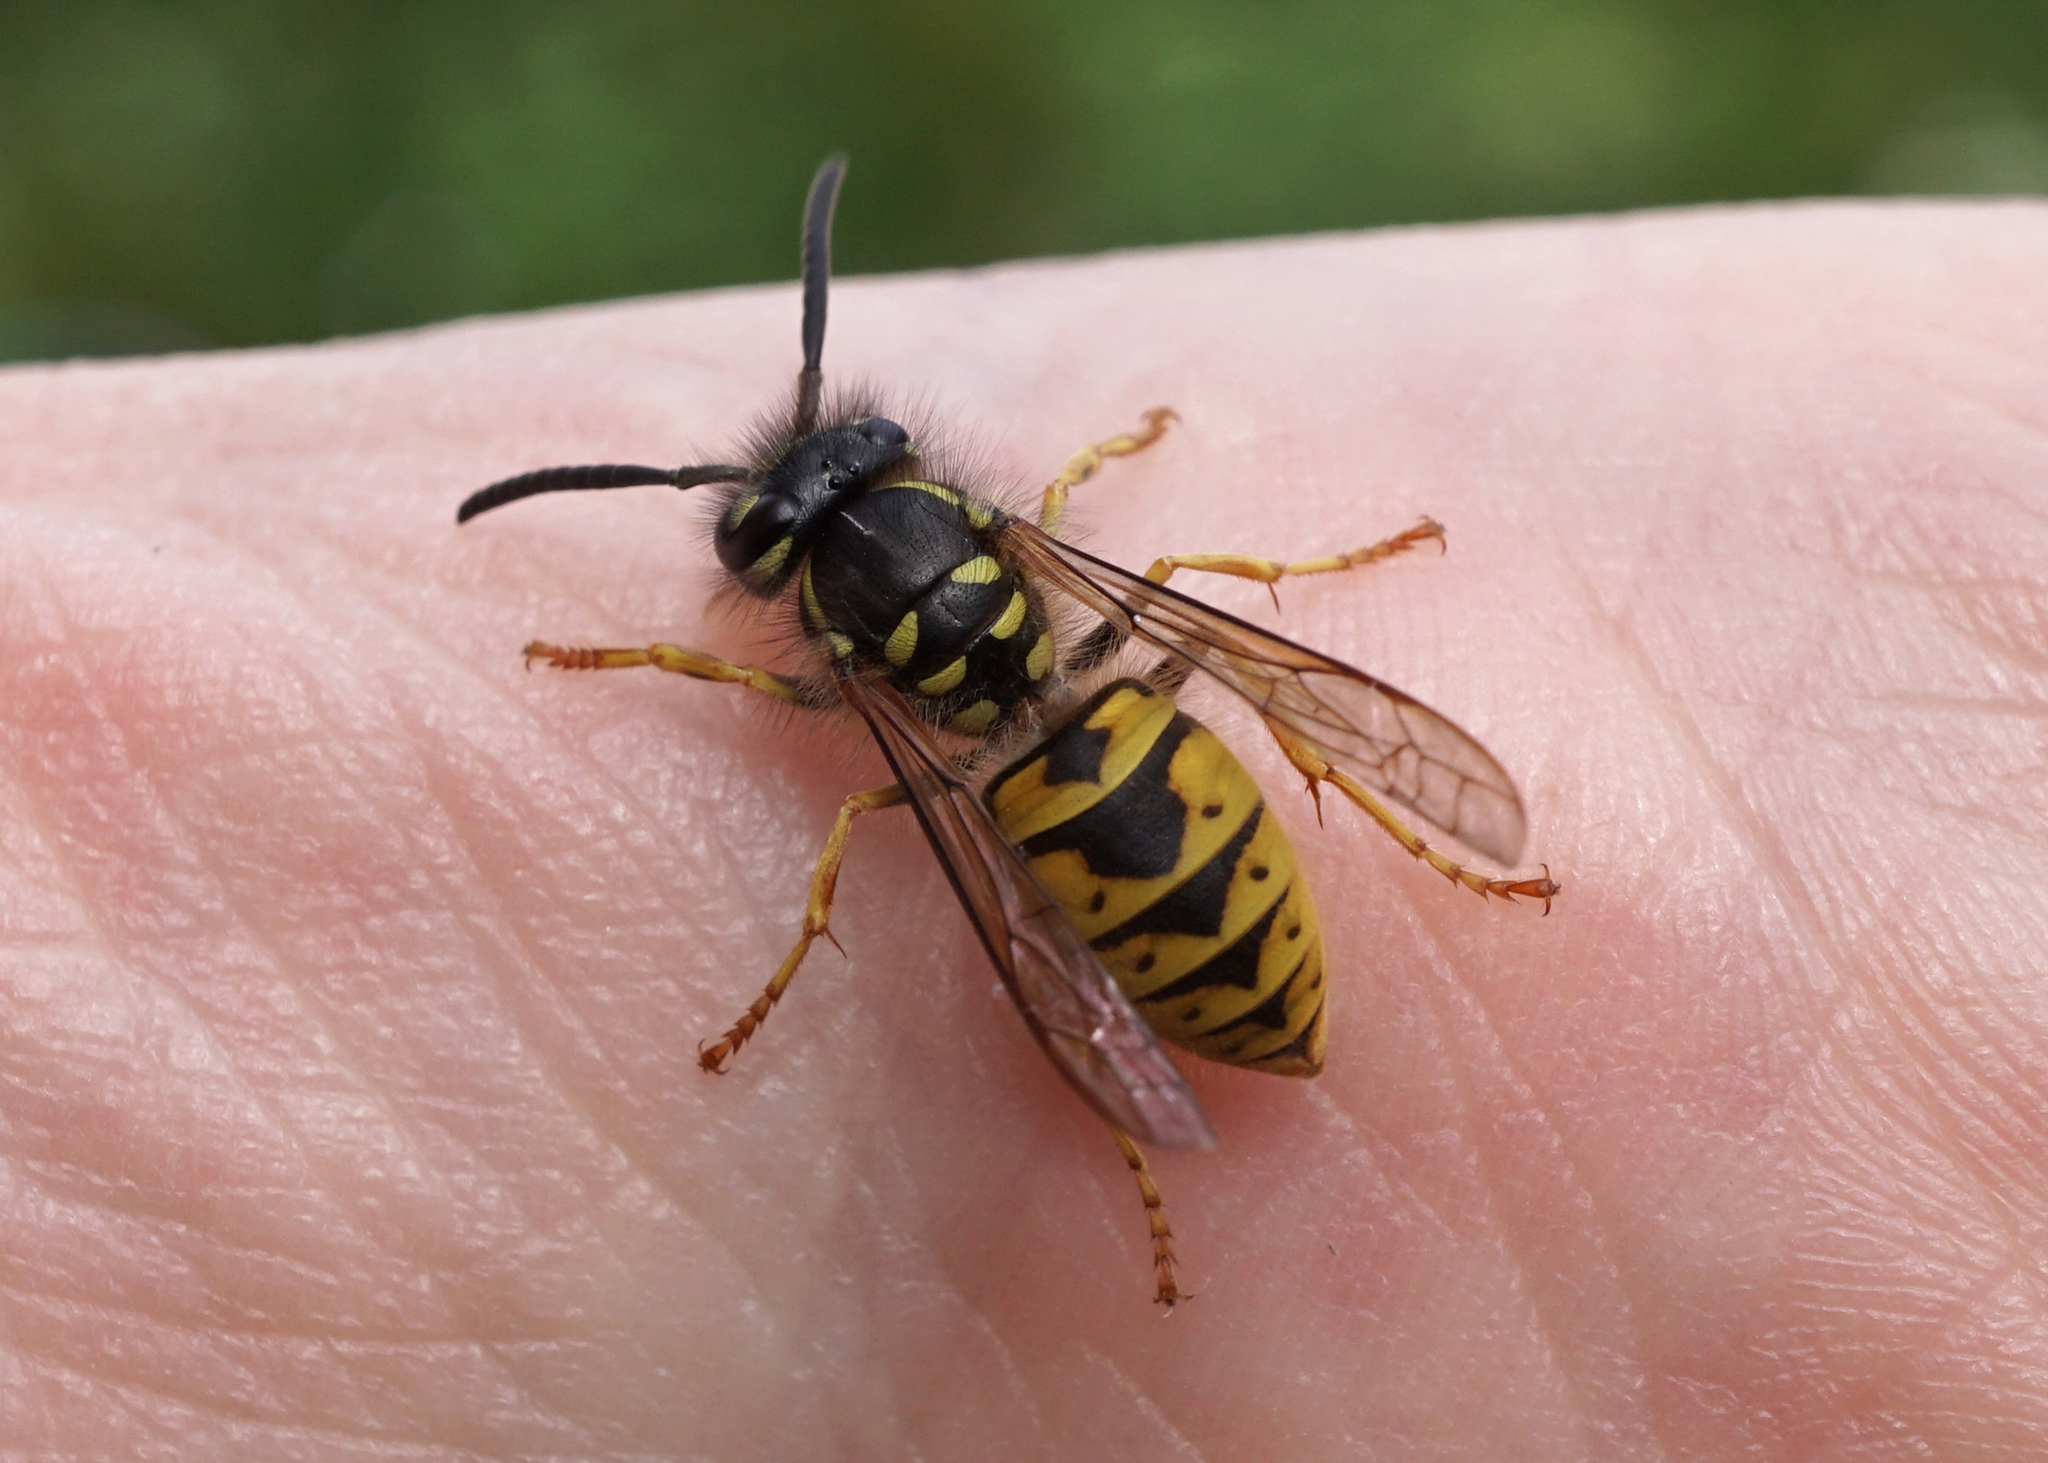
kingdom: Animalia
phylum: Arthropoda
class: Insecta
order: Hymenoptera
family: Vespidae
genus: Vespula
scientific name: Vespula vulgaris
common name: Common wasp
